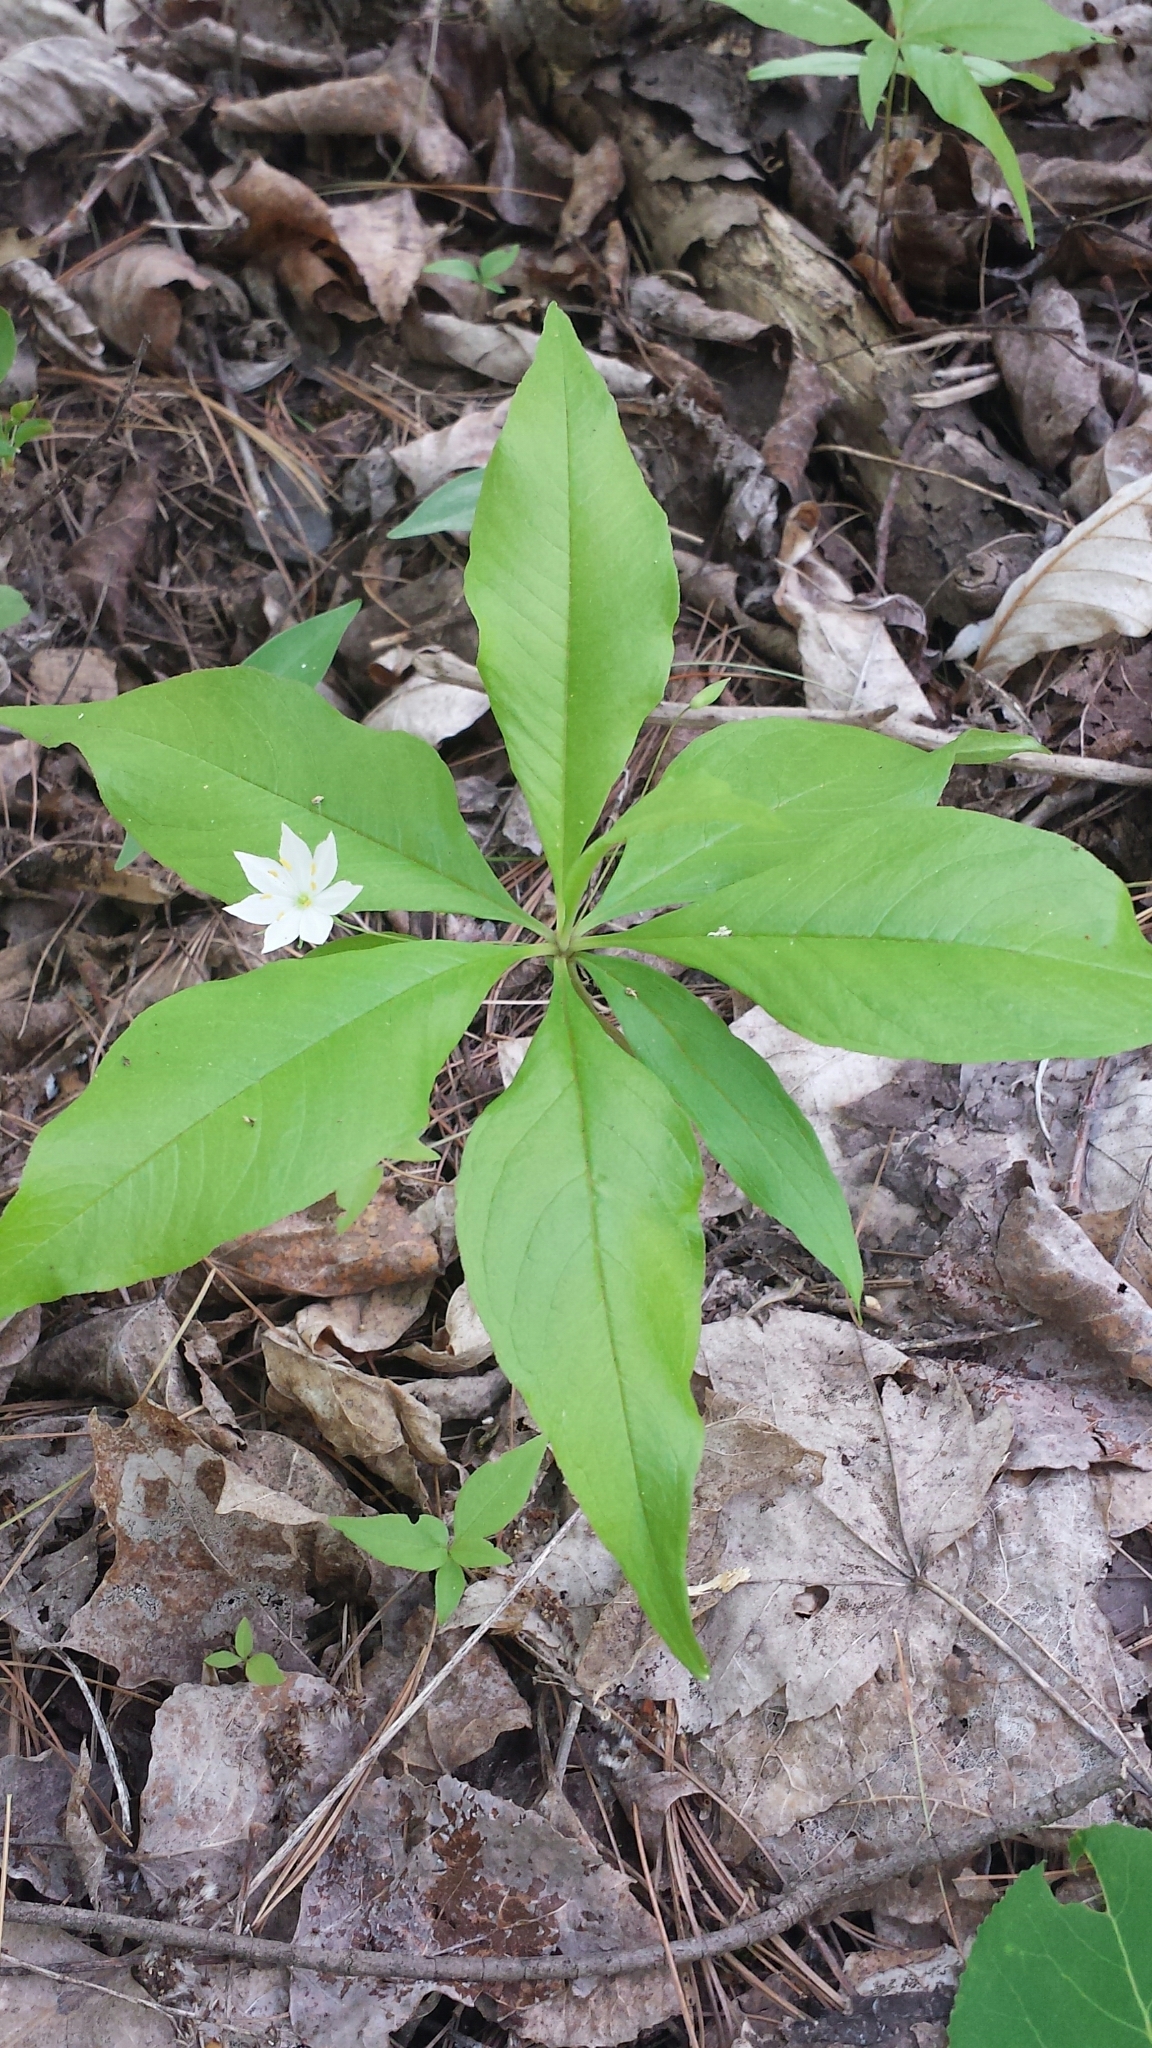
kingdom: Plantae
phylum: Tracheophyta
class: Magnoliopsida
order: Ericales
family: Primulaceae
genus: Lysimachia
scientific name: Lysimachia borealis
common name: American starflower
